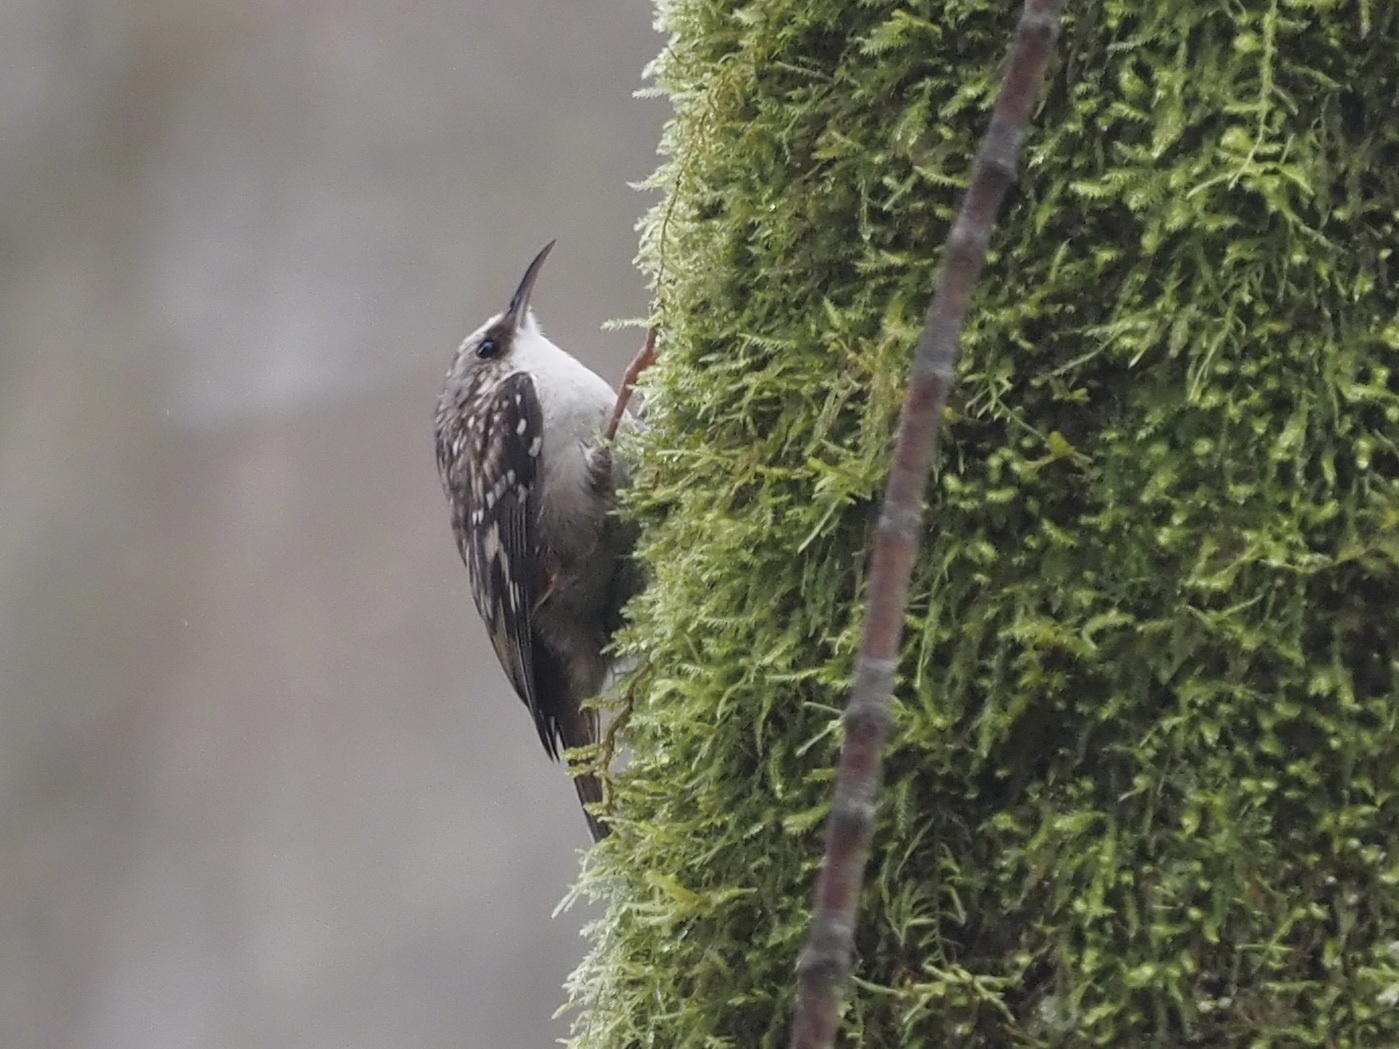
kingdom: Animalia
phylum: Chordata
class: Aves
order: Passeriformes
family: Certhiidae
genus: Certhia
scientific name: Certhia americana
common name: Brown creeper
